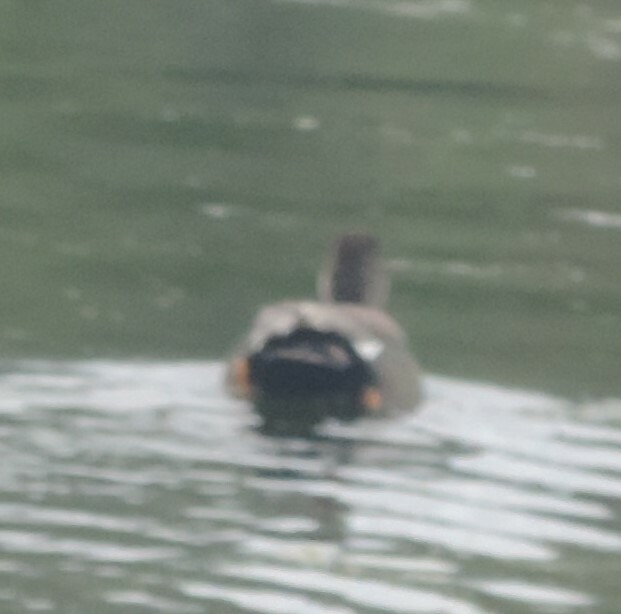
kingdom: Animalia
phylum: Chordata
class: Aves
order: Anseriformes
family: Anatidae
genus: Mareca
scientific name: Mareca strepera
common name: Gadwall
